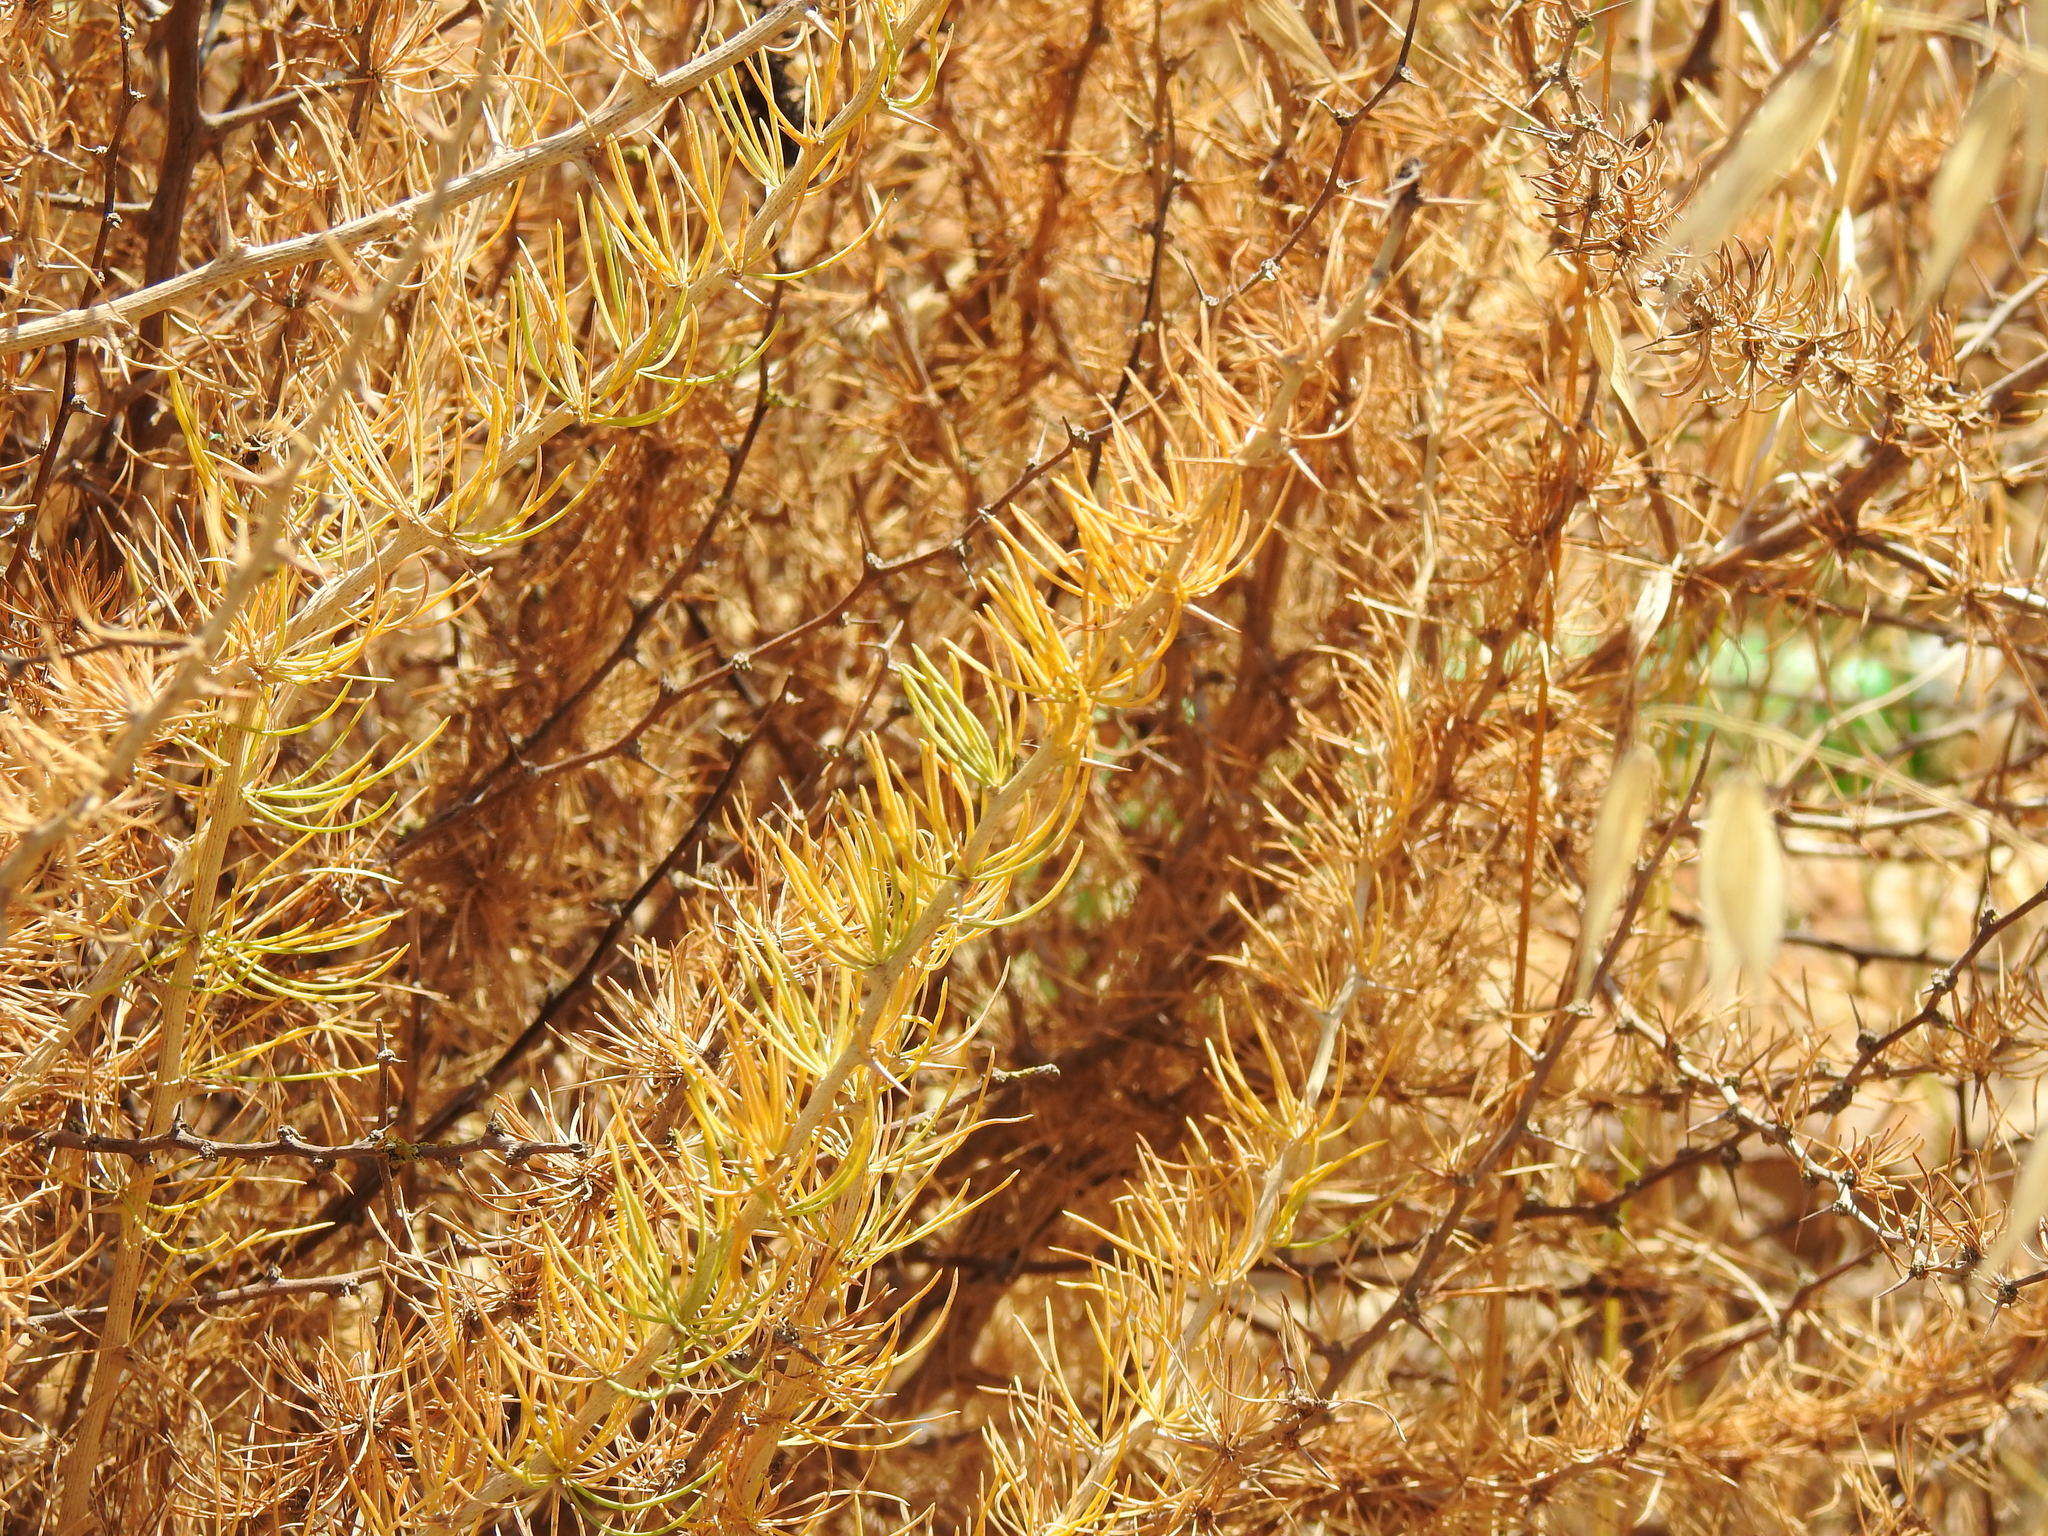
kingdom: Plantae
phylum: Tracheophyta
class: Liliopsida
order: Asparagales
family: Asparagaceae
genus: Asparagus
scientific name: Asparagus albus
